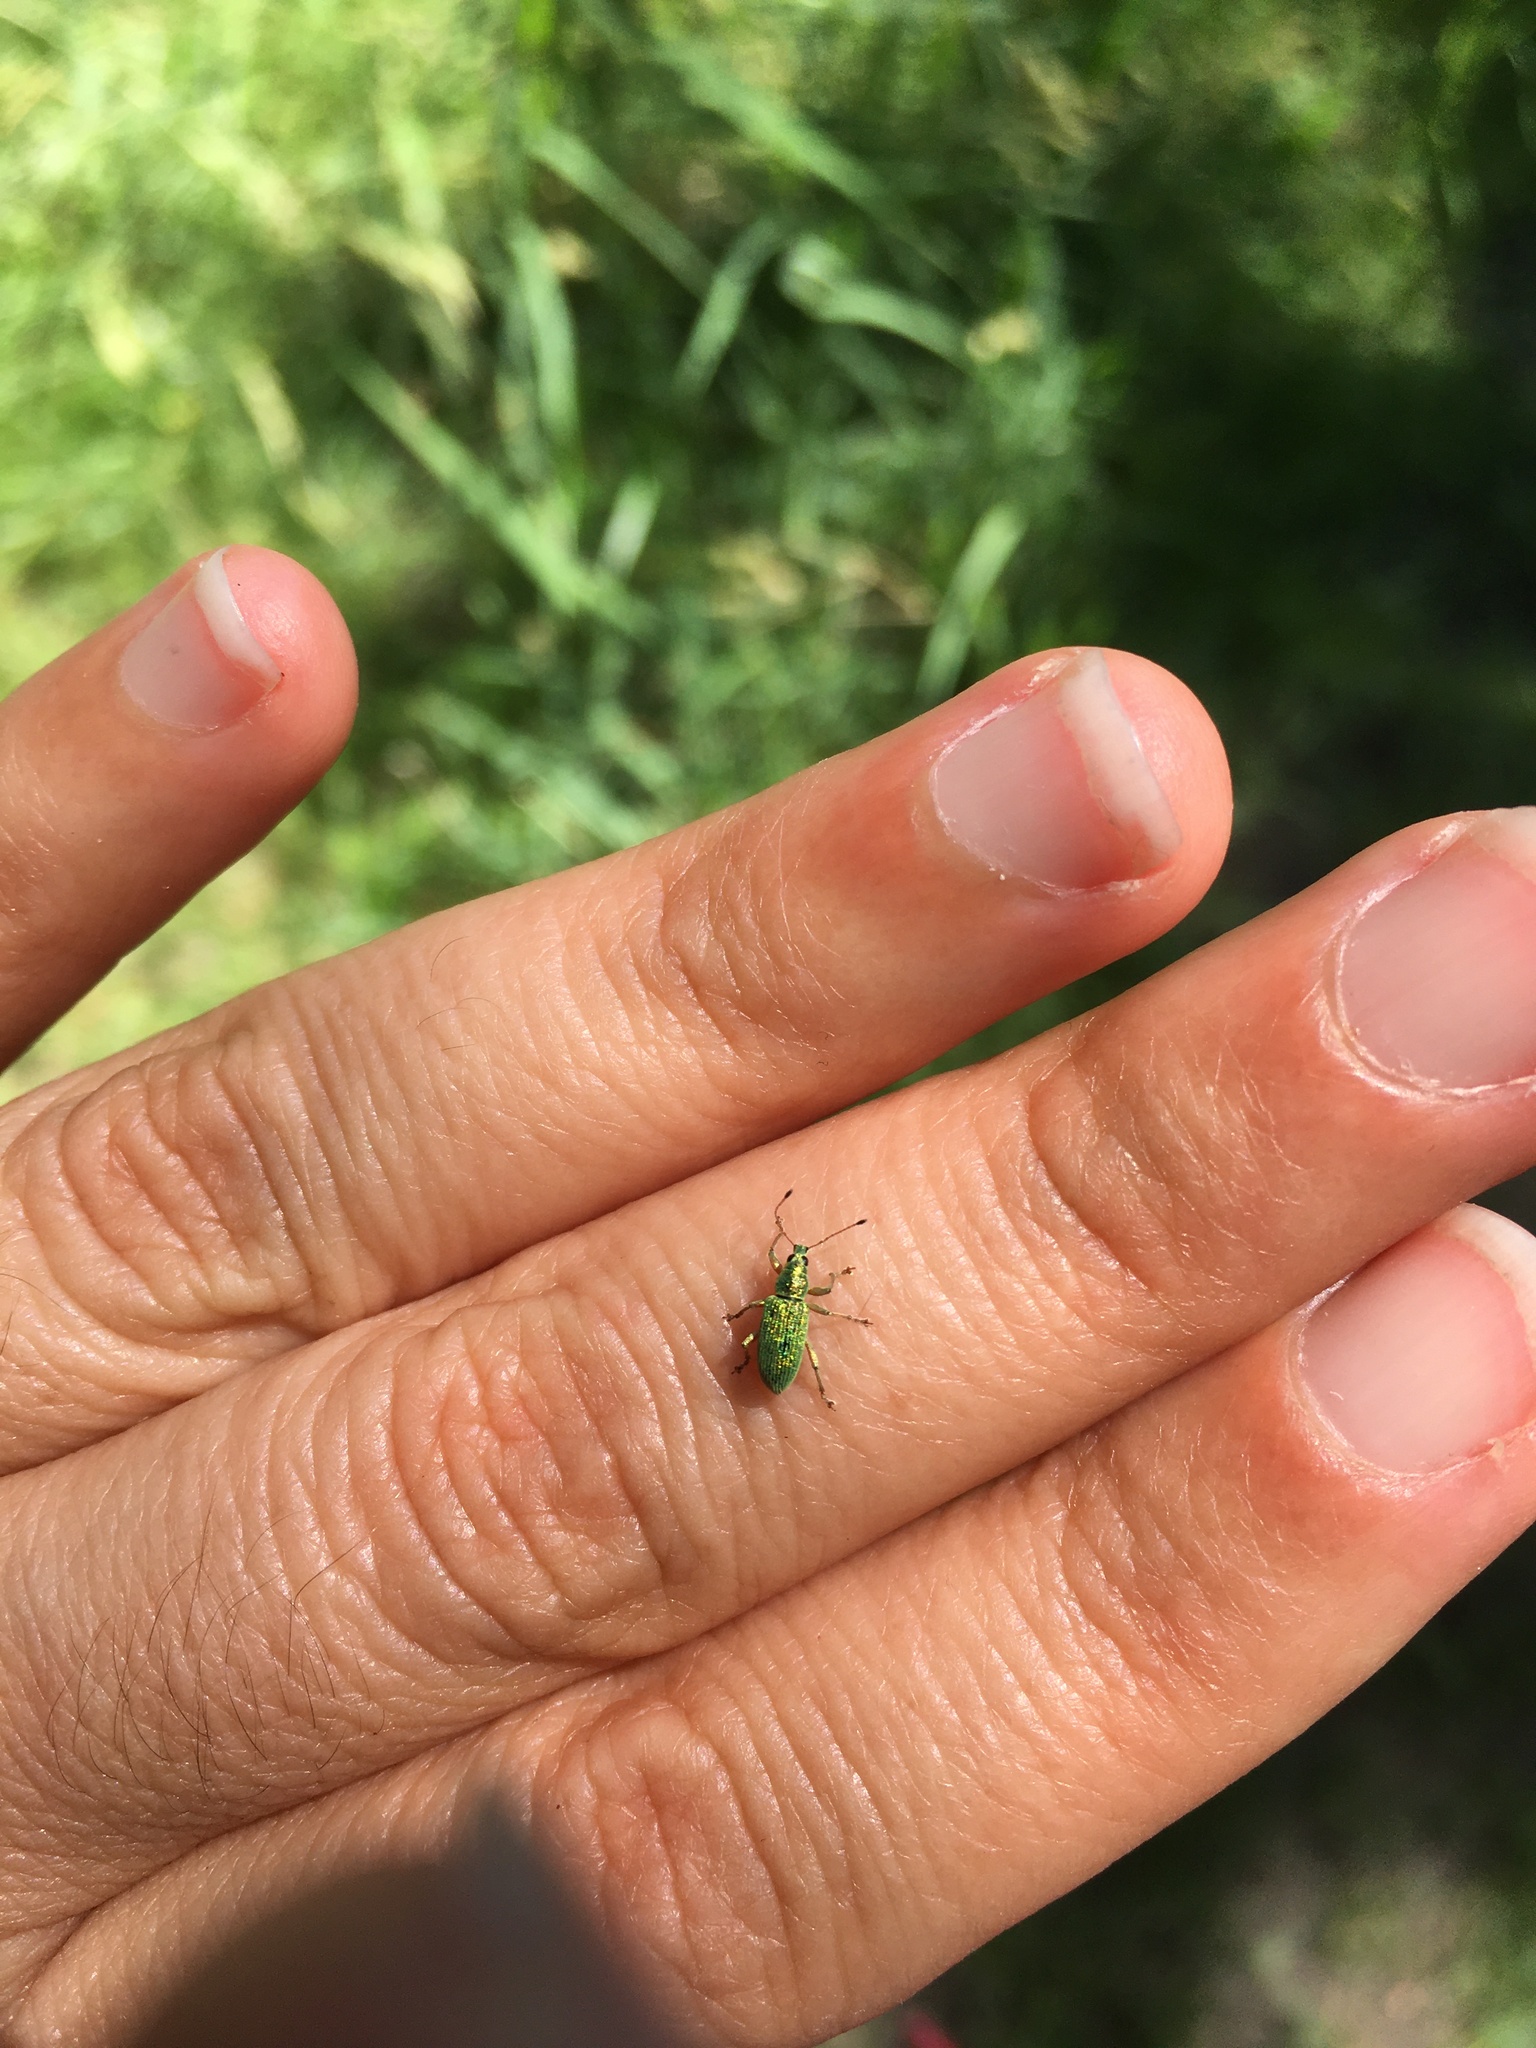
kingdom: Animalia
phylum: Arthropoda
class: Insecta
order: Coleoptera
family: Curculionidae
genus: Polydrusus
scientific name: Polydrusus formosus
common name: Weevil
